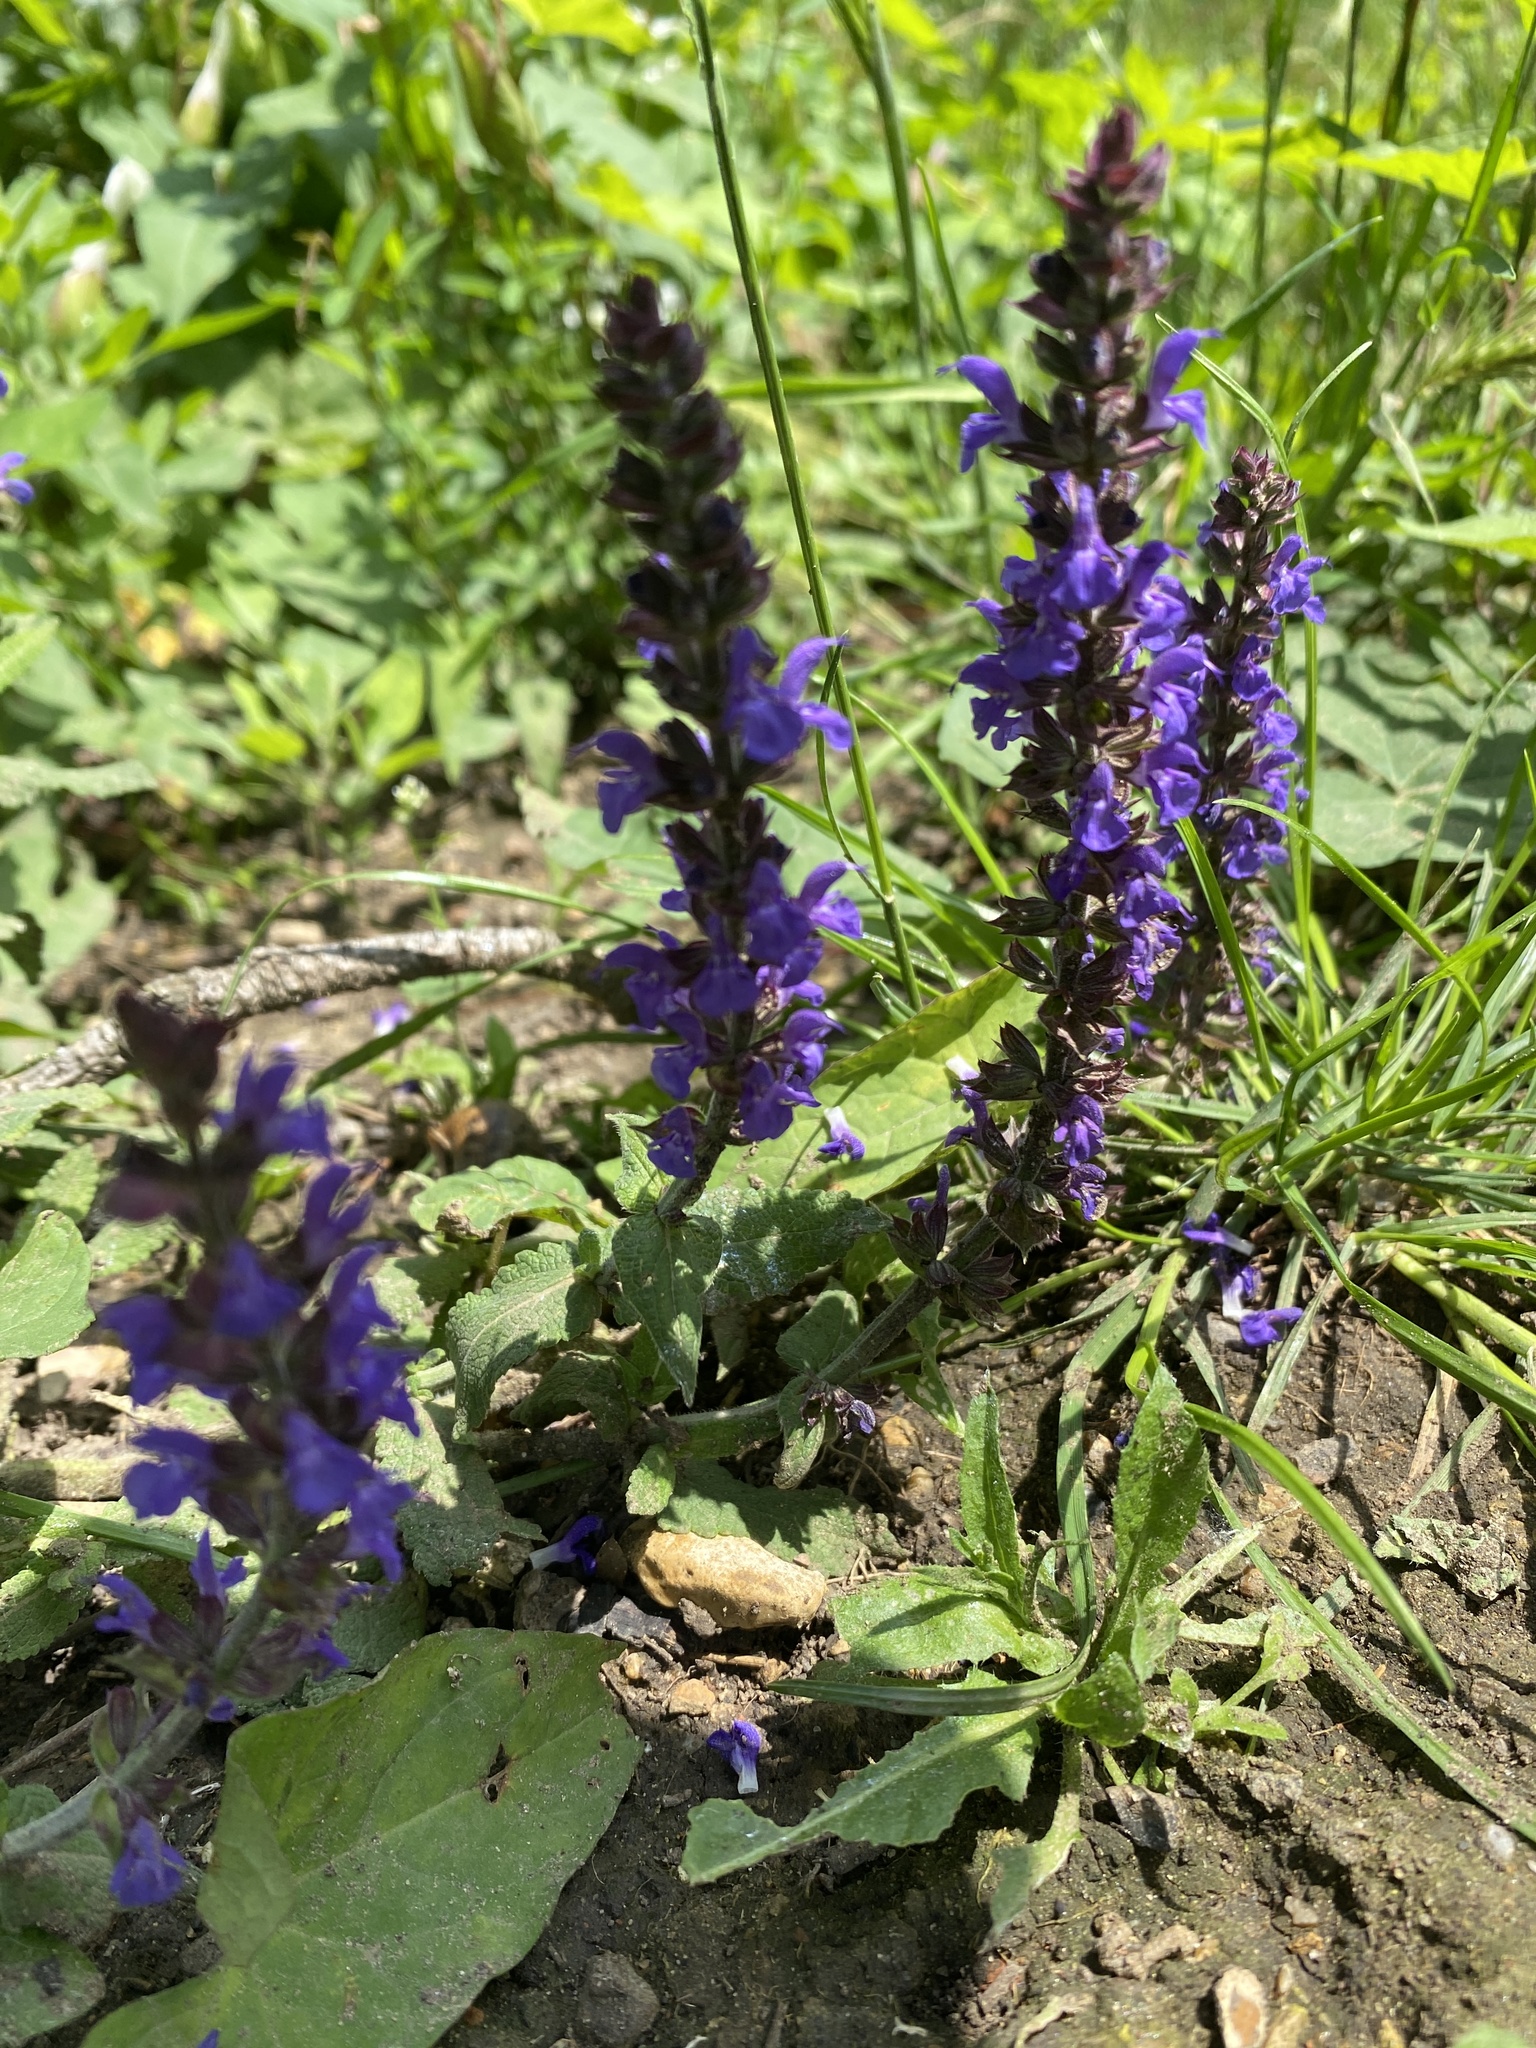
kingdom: Plantae
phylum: Tracheophyta
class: Magnoliopsida
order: Lamiales
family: Lamiaceae
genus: Salvia
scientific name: Salvia nemorosa
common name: Balkan clary
